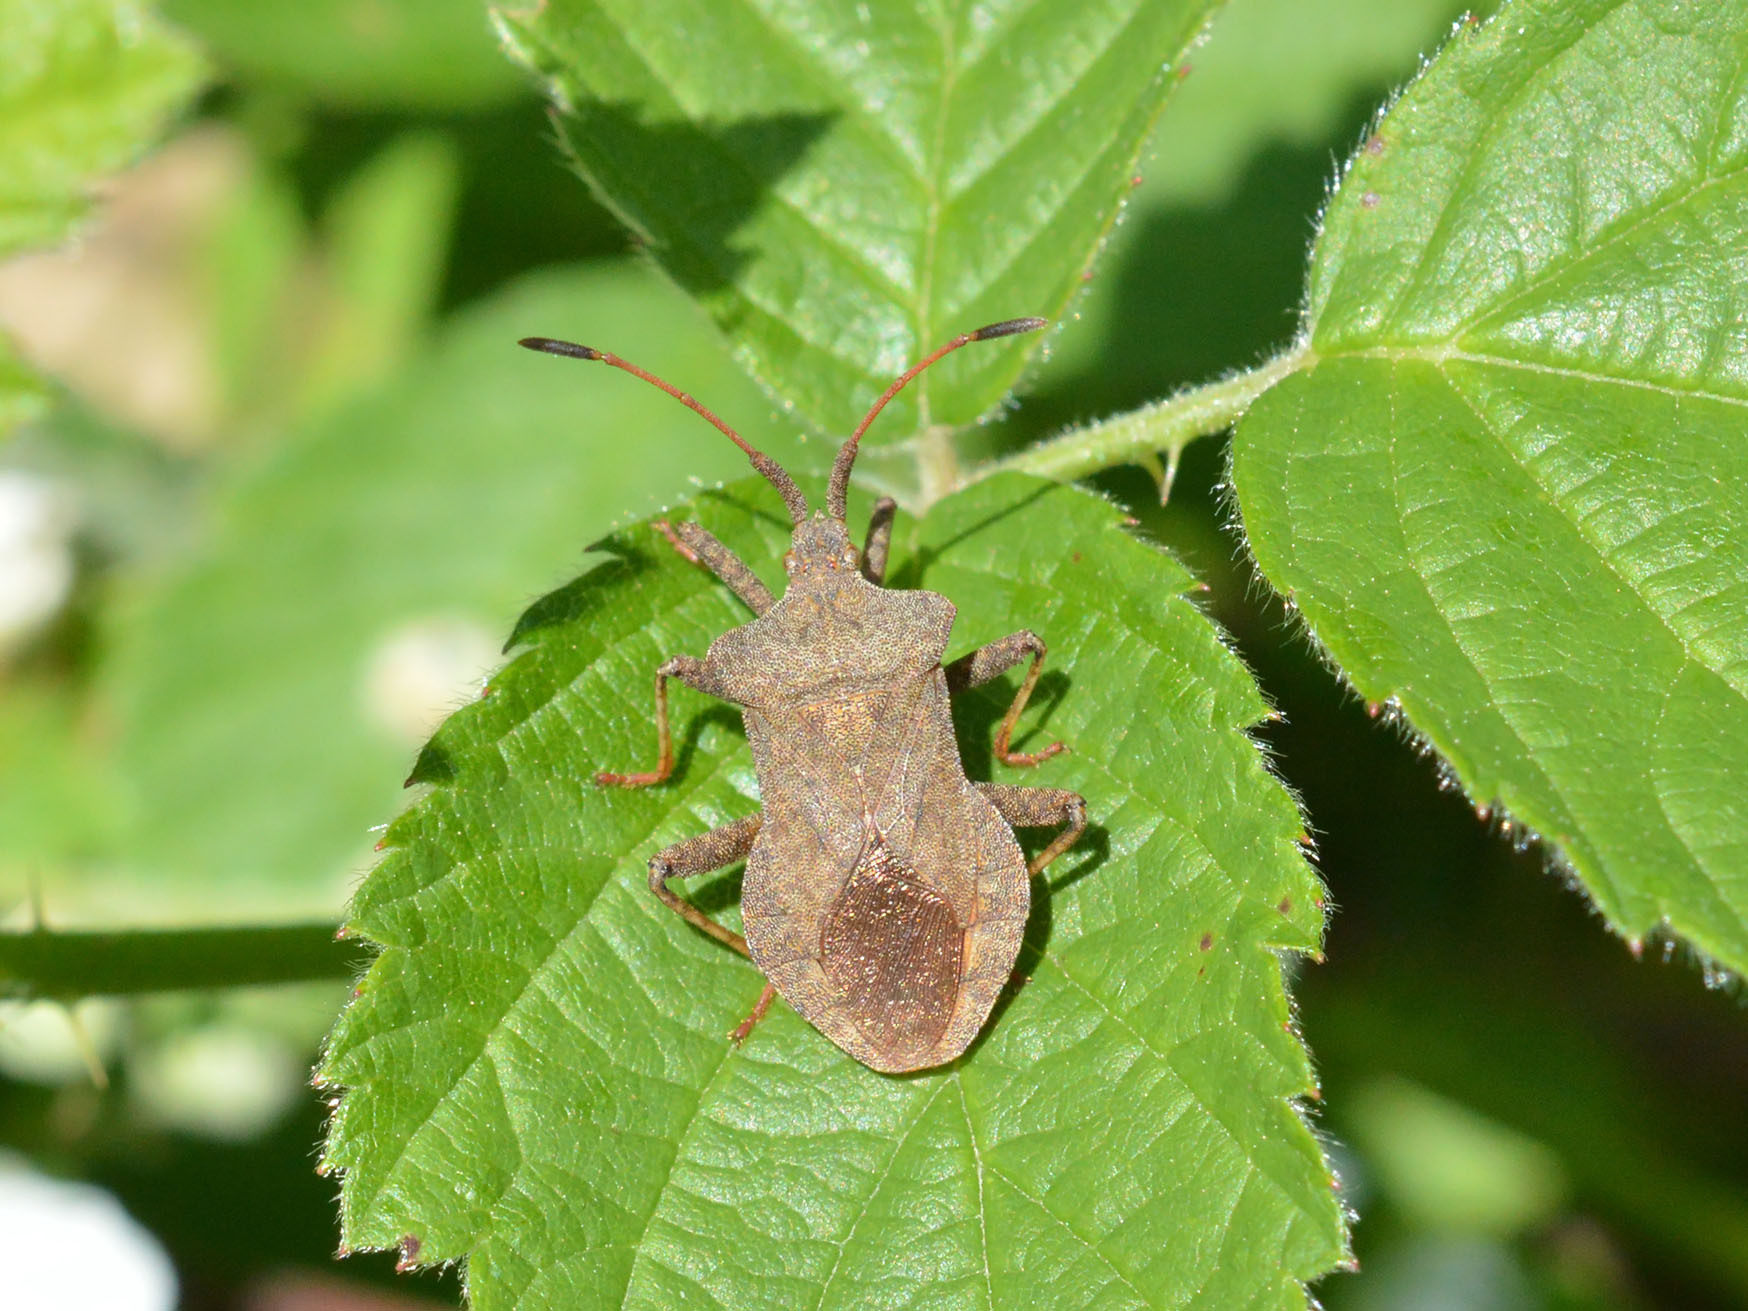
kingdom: Animalia
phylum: Arthropoda
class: Insecta
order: Hemiptera
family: Coreidae
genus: Coreus
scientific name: Coreus marginatus
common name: Dock bug
